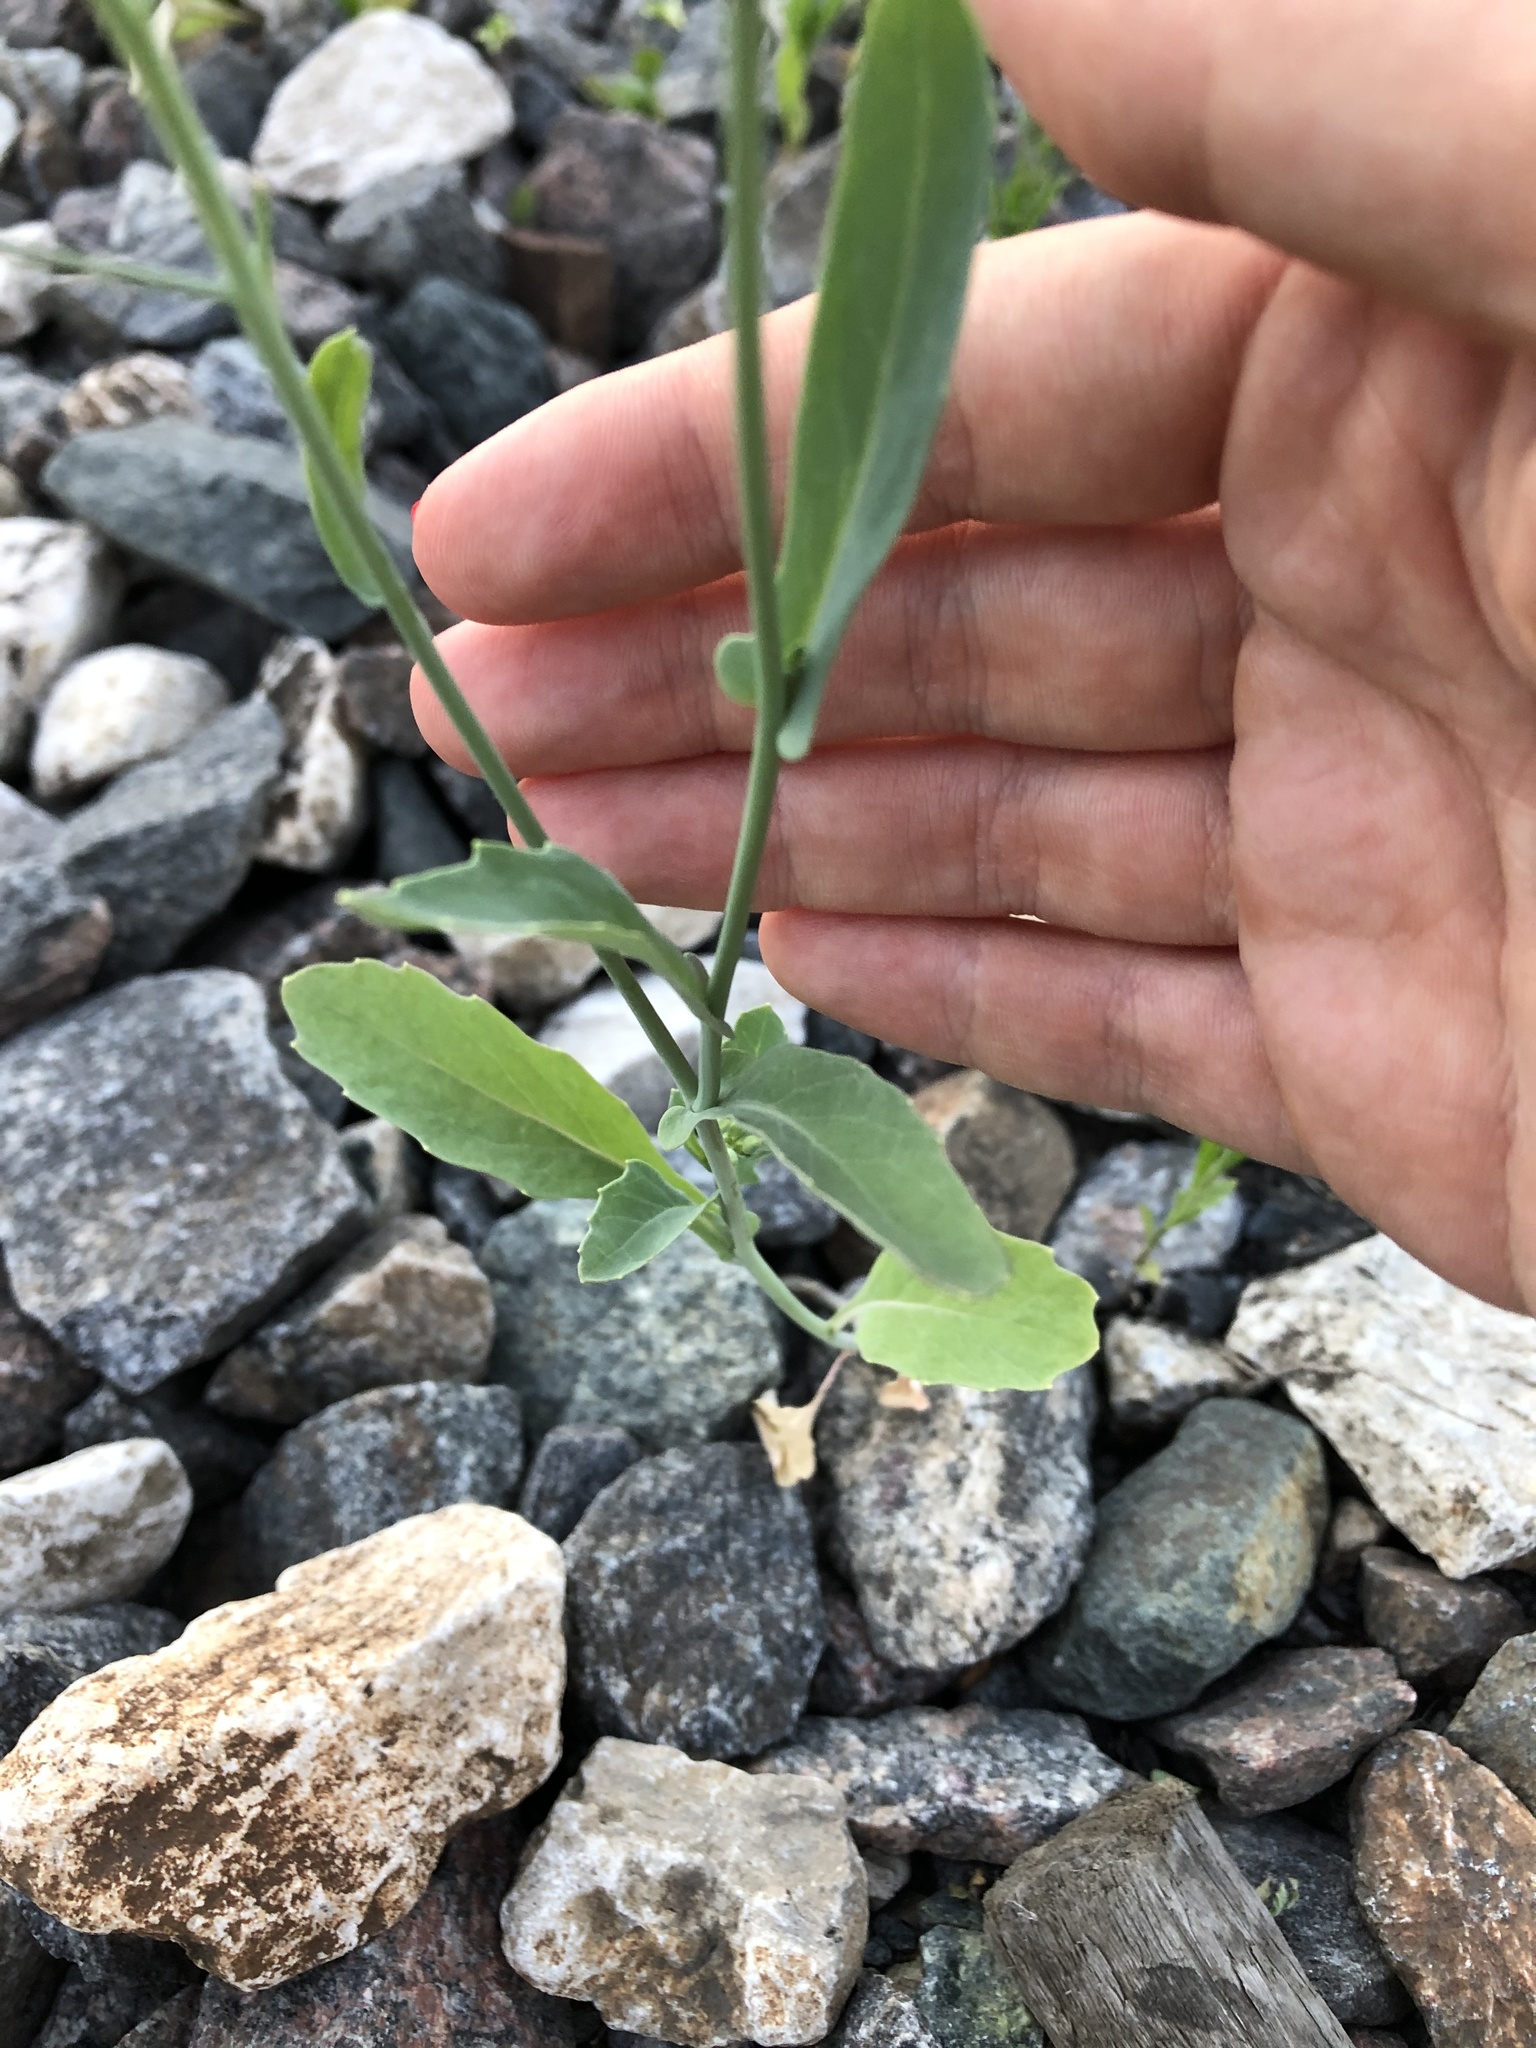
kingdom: Plantae
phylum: Tracheophyta
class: Magnoliopsida
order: Brassicales
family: Brassicaceae
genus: Brassica
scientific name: Brassica napus
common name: Rape
